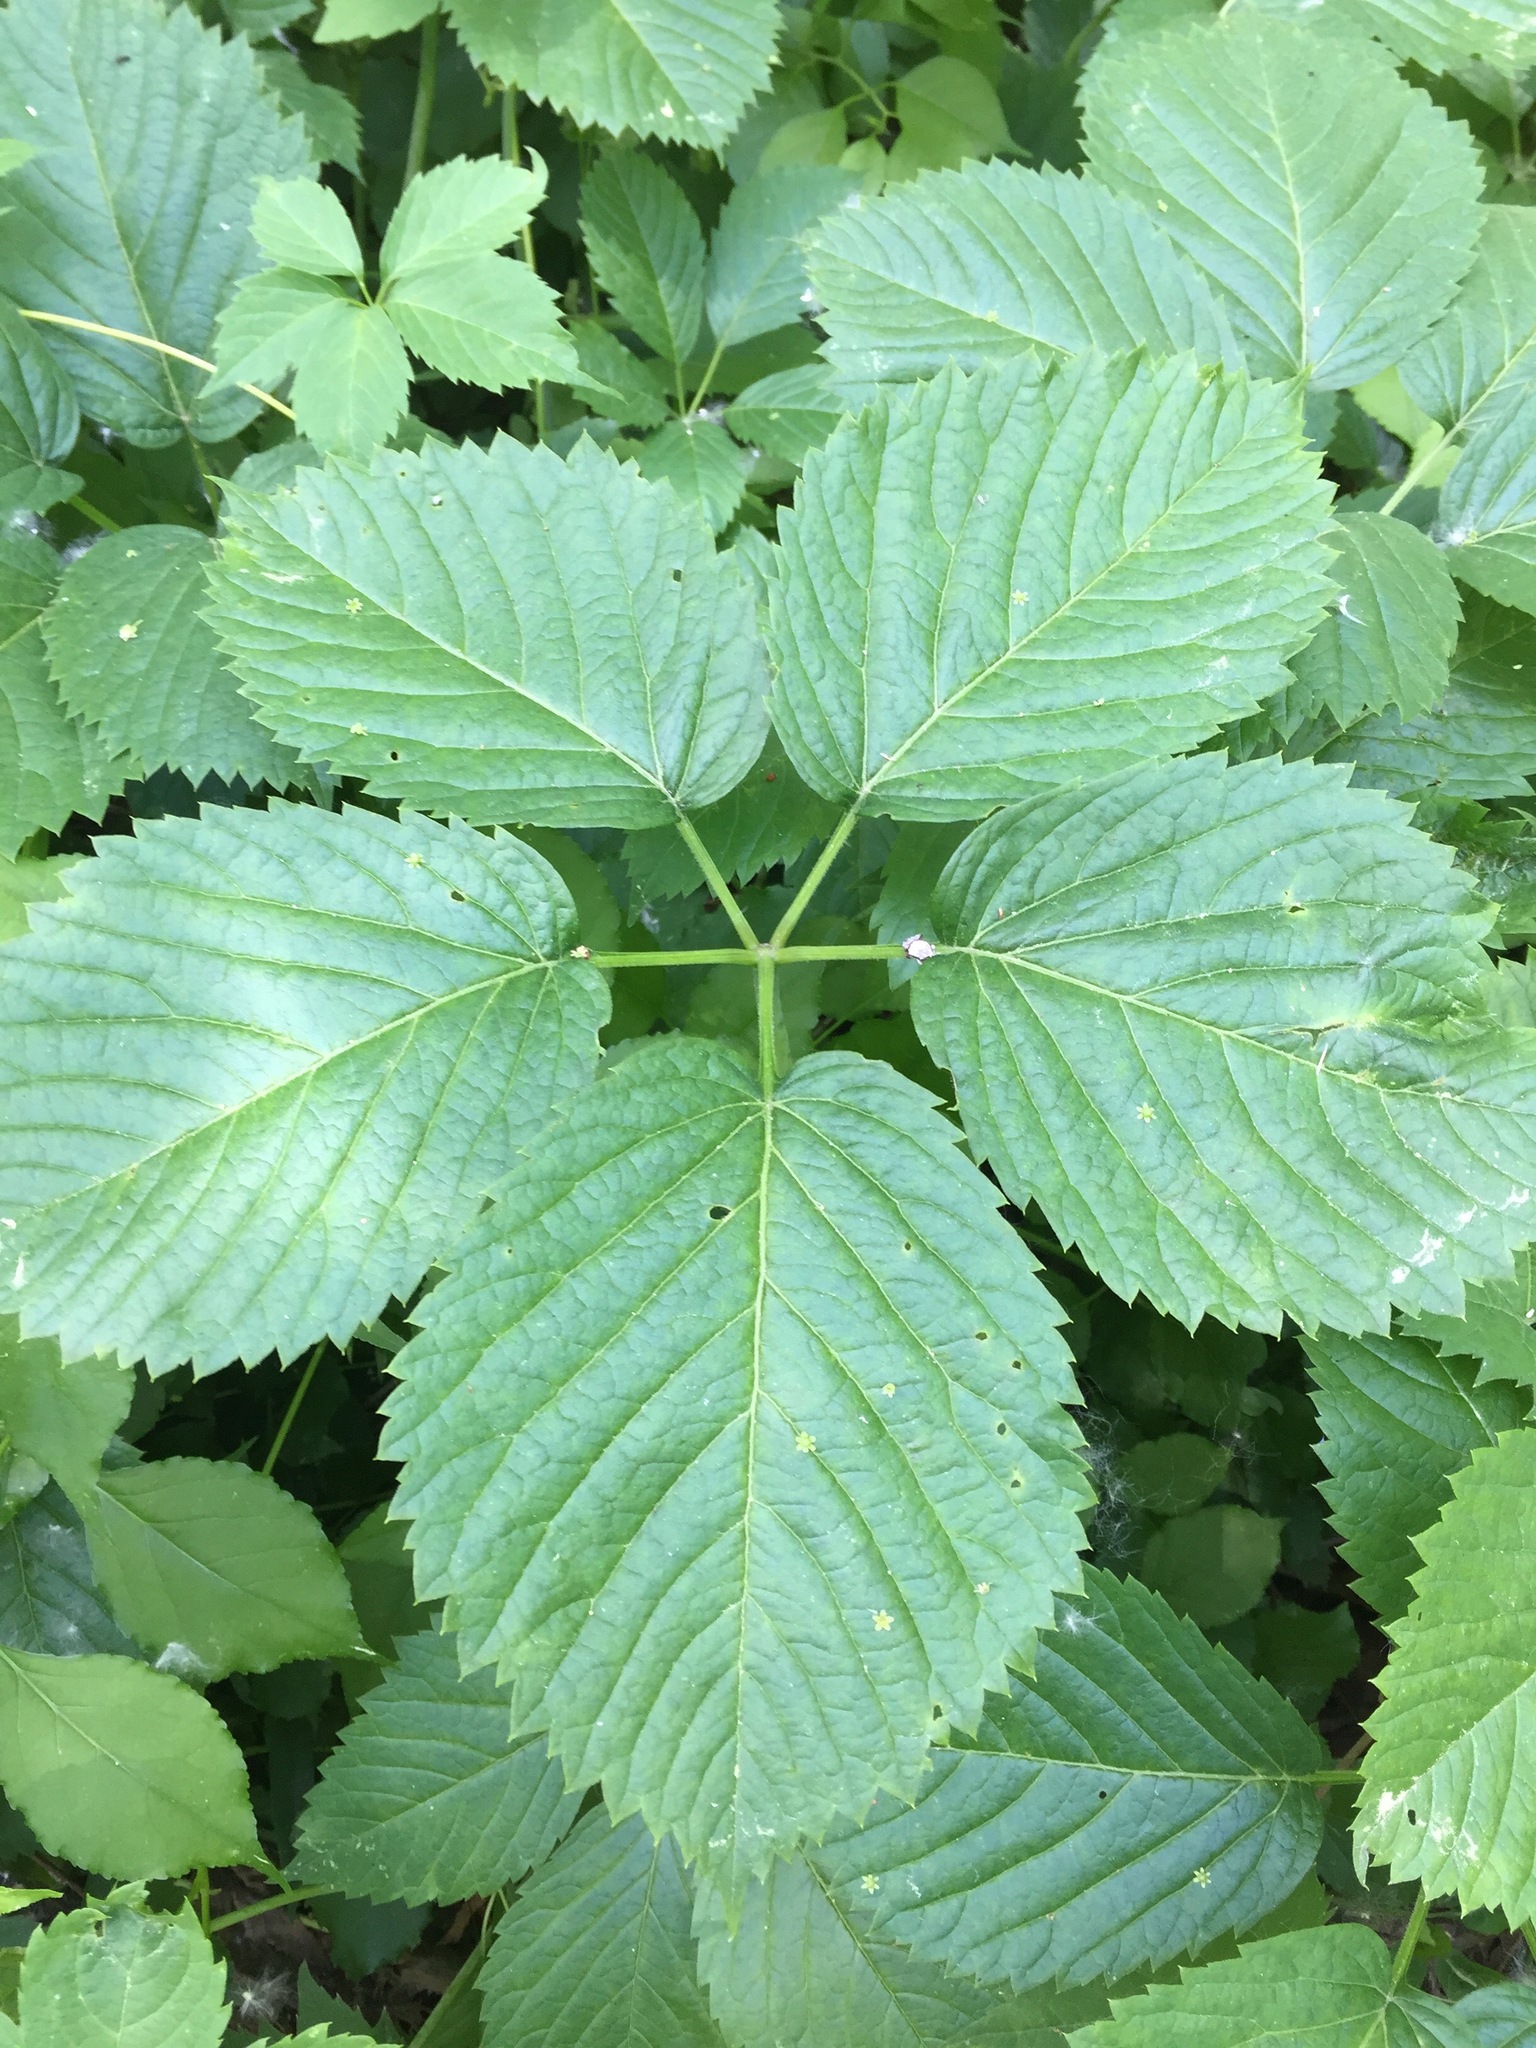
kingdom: Plantae
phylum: Tracheophyta
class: Magnoliopsida
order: Vitales
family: Vitaceae
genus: Parthenocissus
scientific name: Parthenocissus inserta
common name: False virginia-creeper
